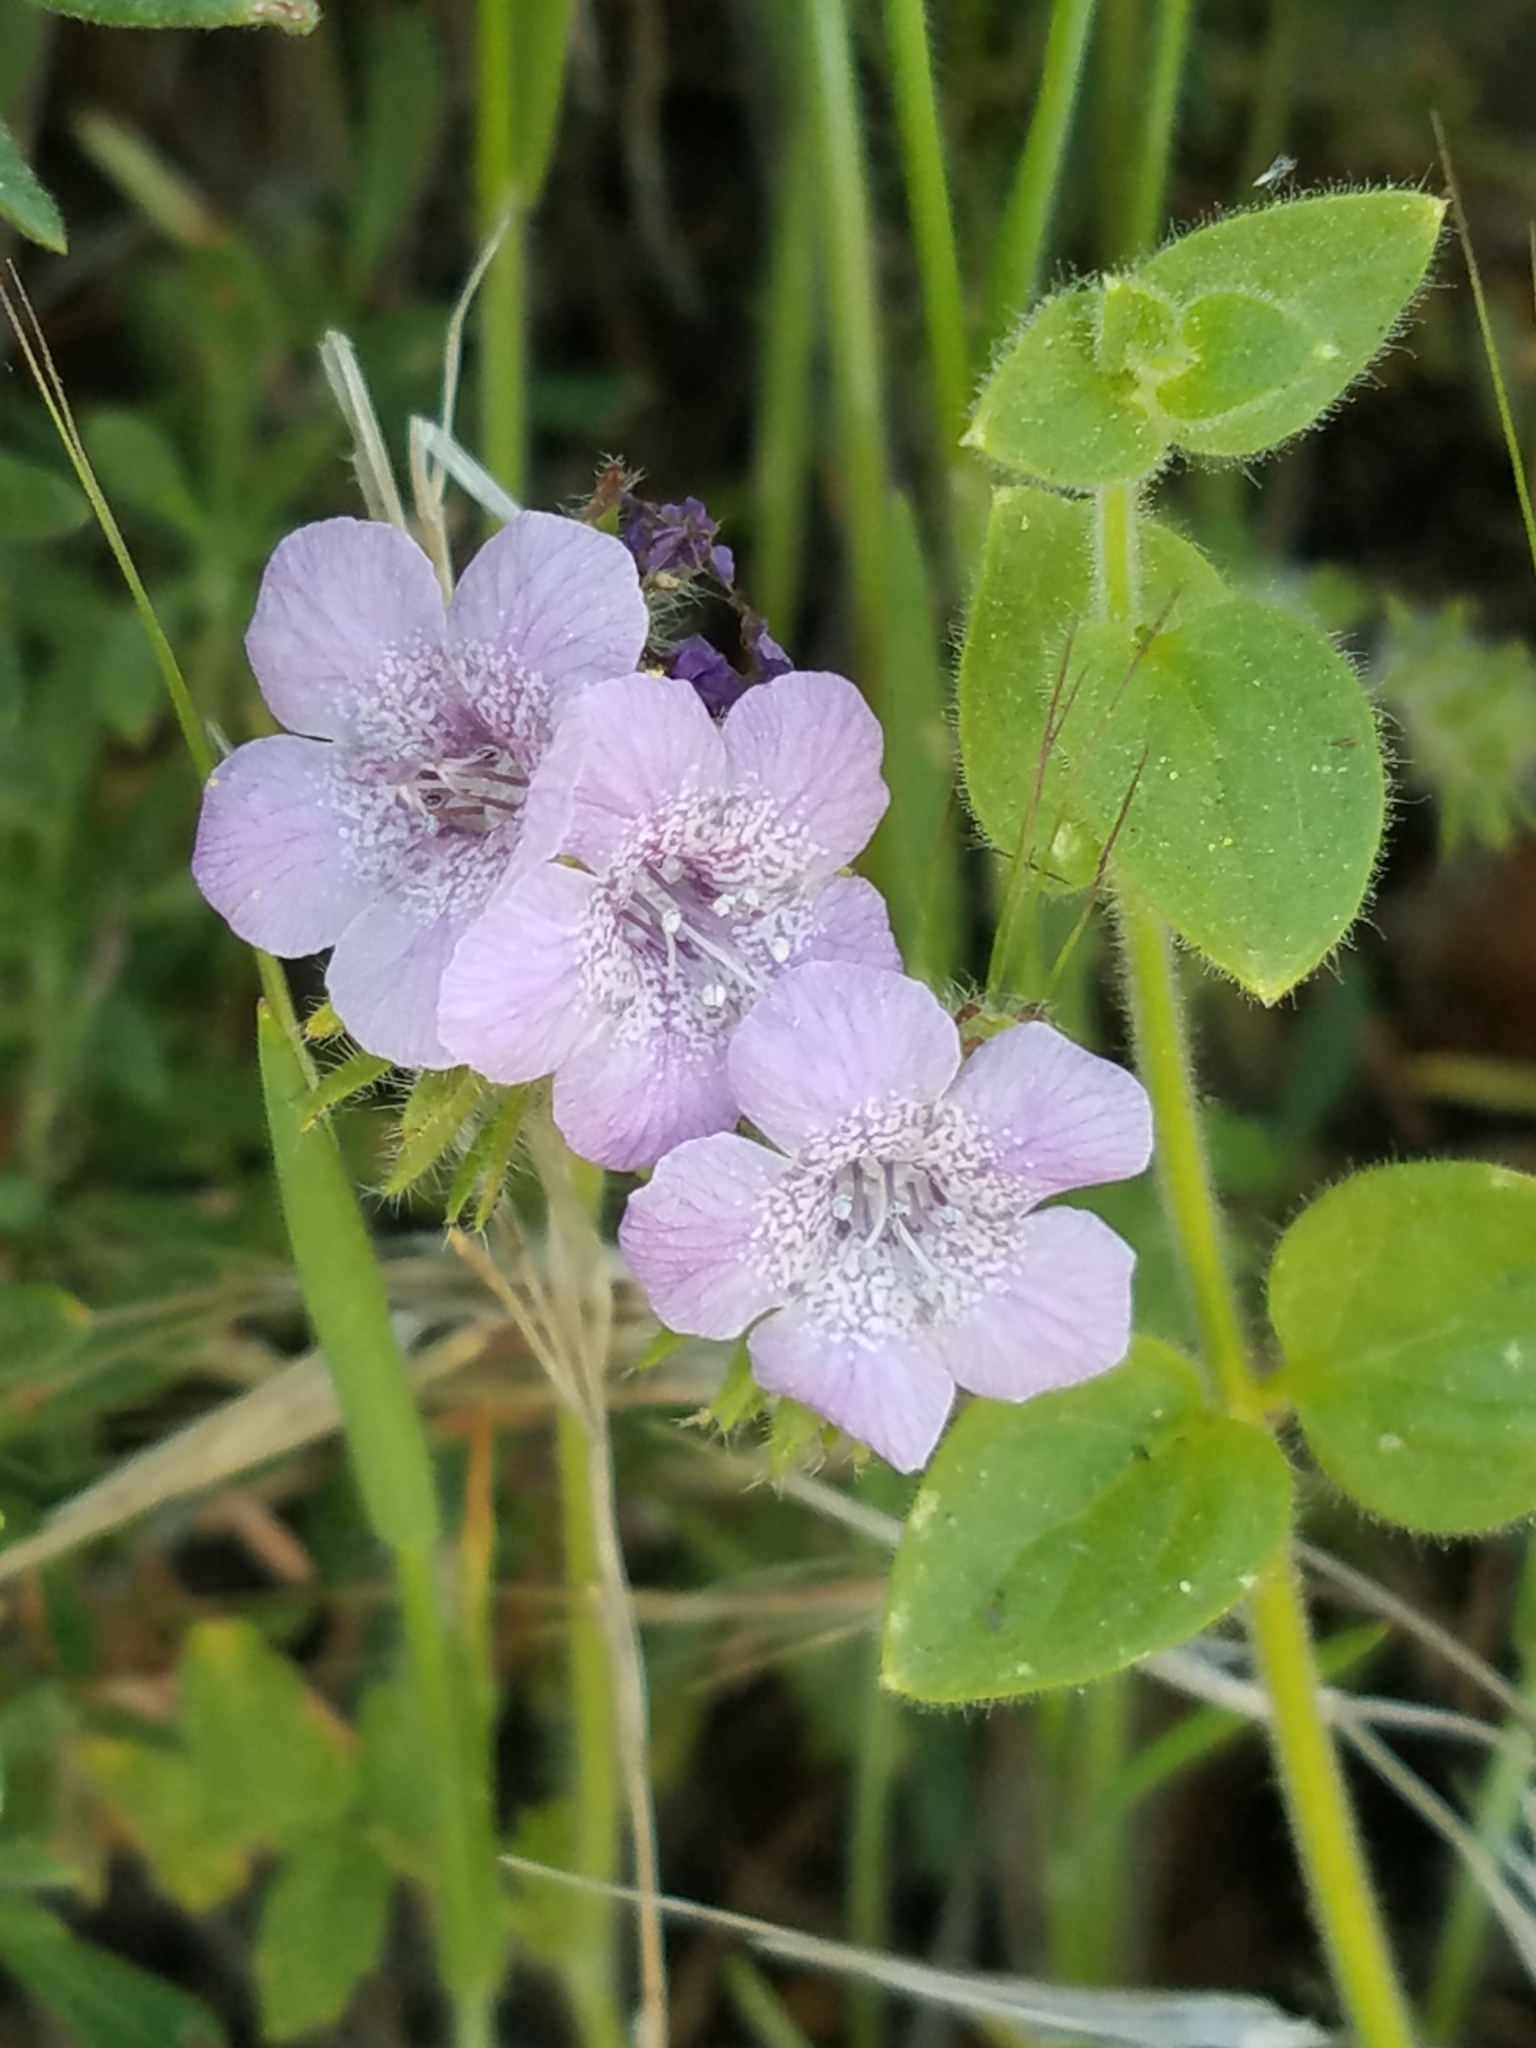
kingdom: Plantae
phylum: Tracheophyta
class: Magnoliopsida
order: Boraginales
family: Hydrophyllaceae
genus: Phacelia
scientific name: Phacelia cicutaria
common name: Caterpillar phacelia
